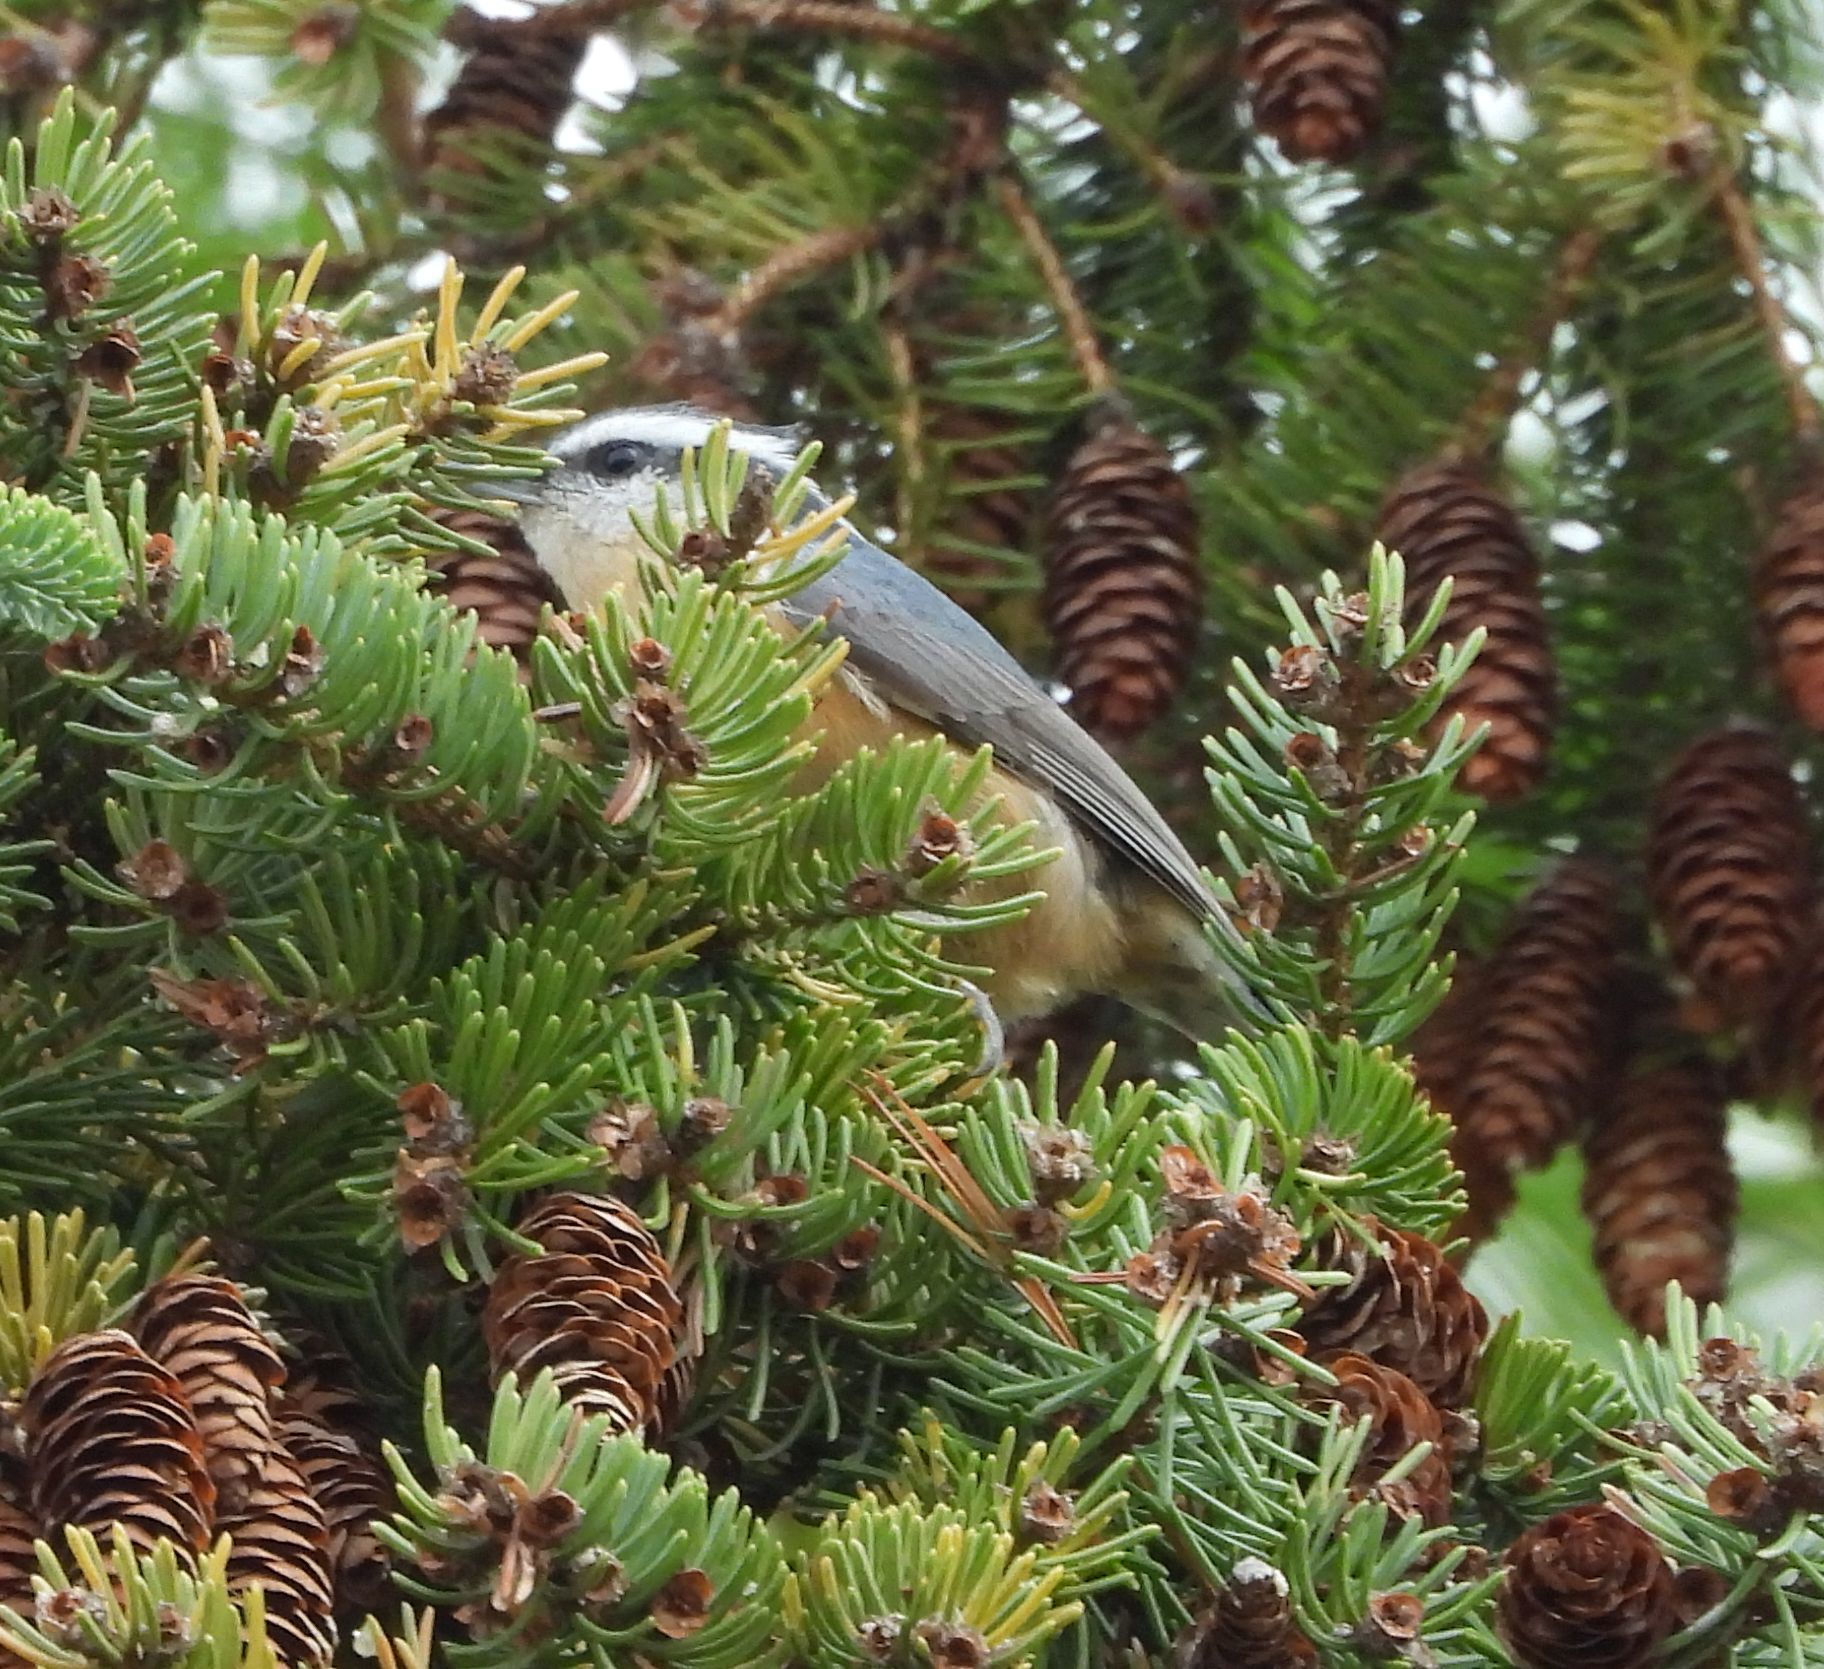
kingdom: Animalia
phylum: Chordata
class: Aves
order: Passeriformes
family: Sittidae
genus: Sitta
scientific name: Sitta canadensis
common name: Red-breasted nuthatch
